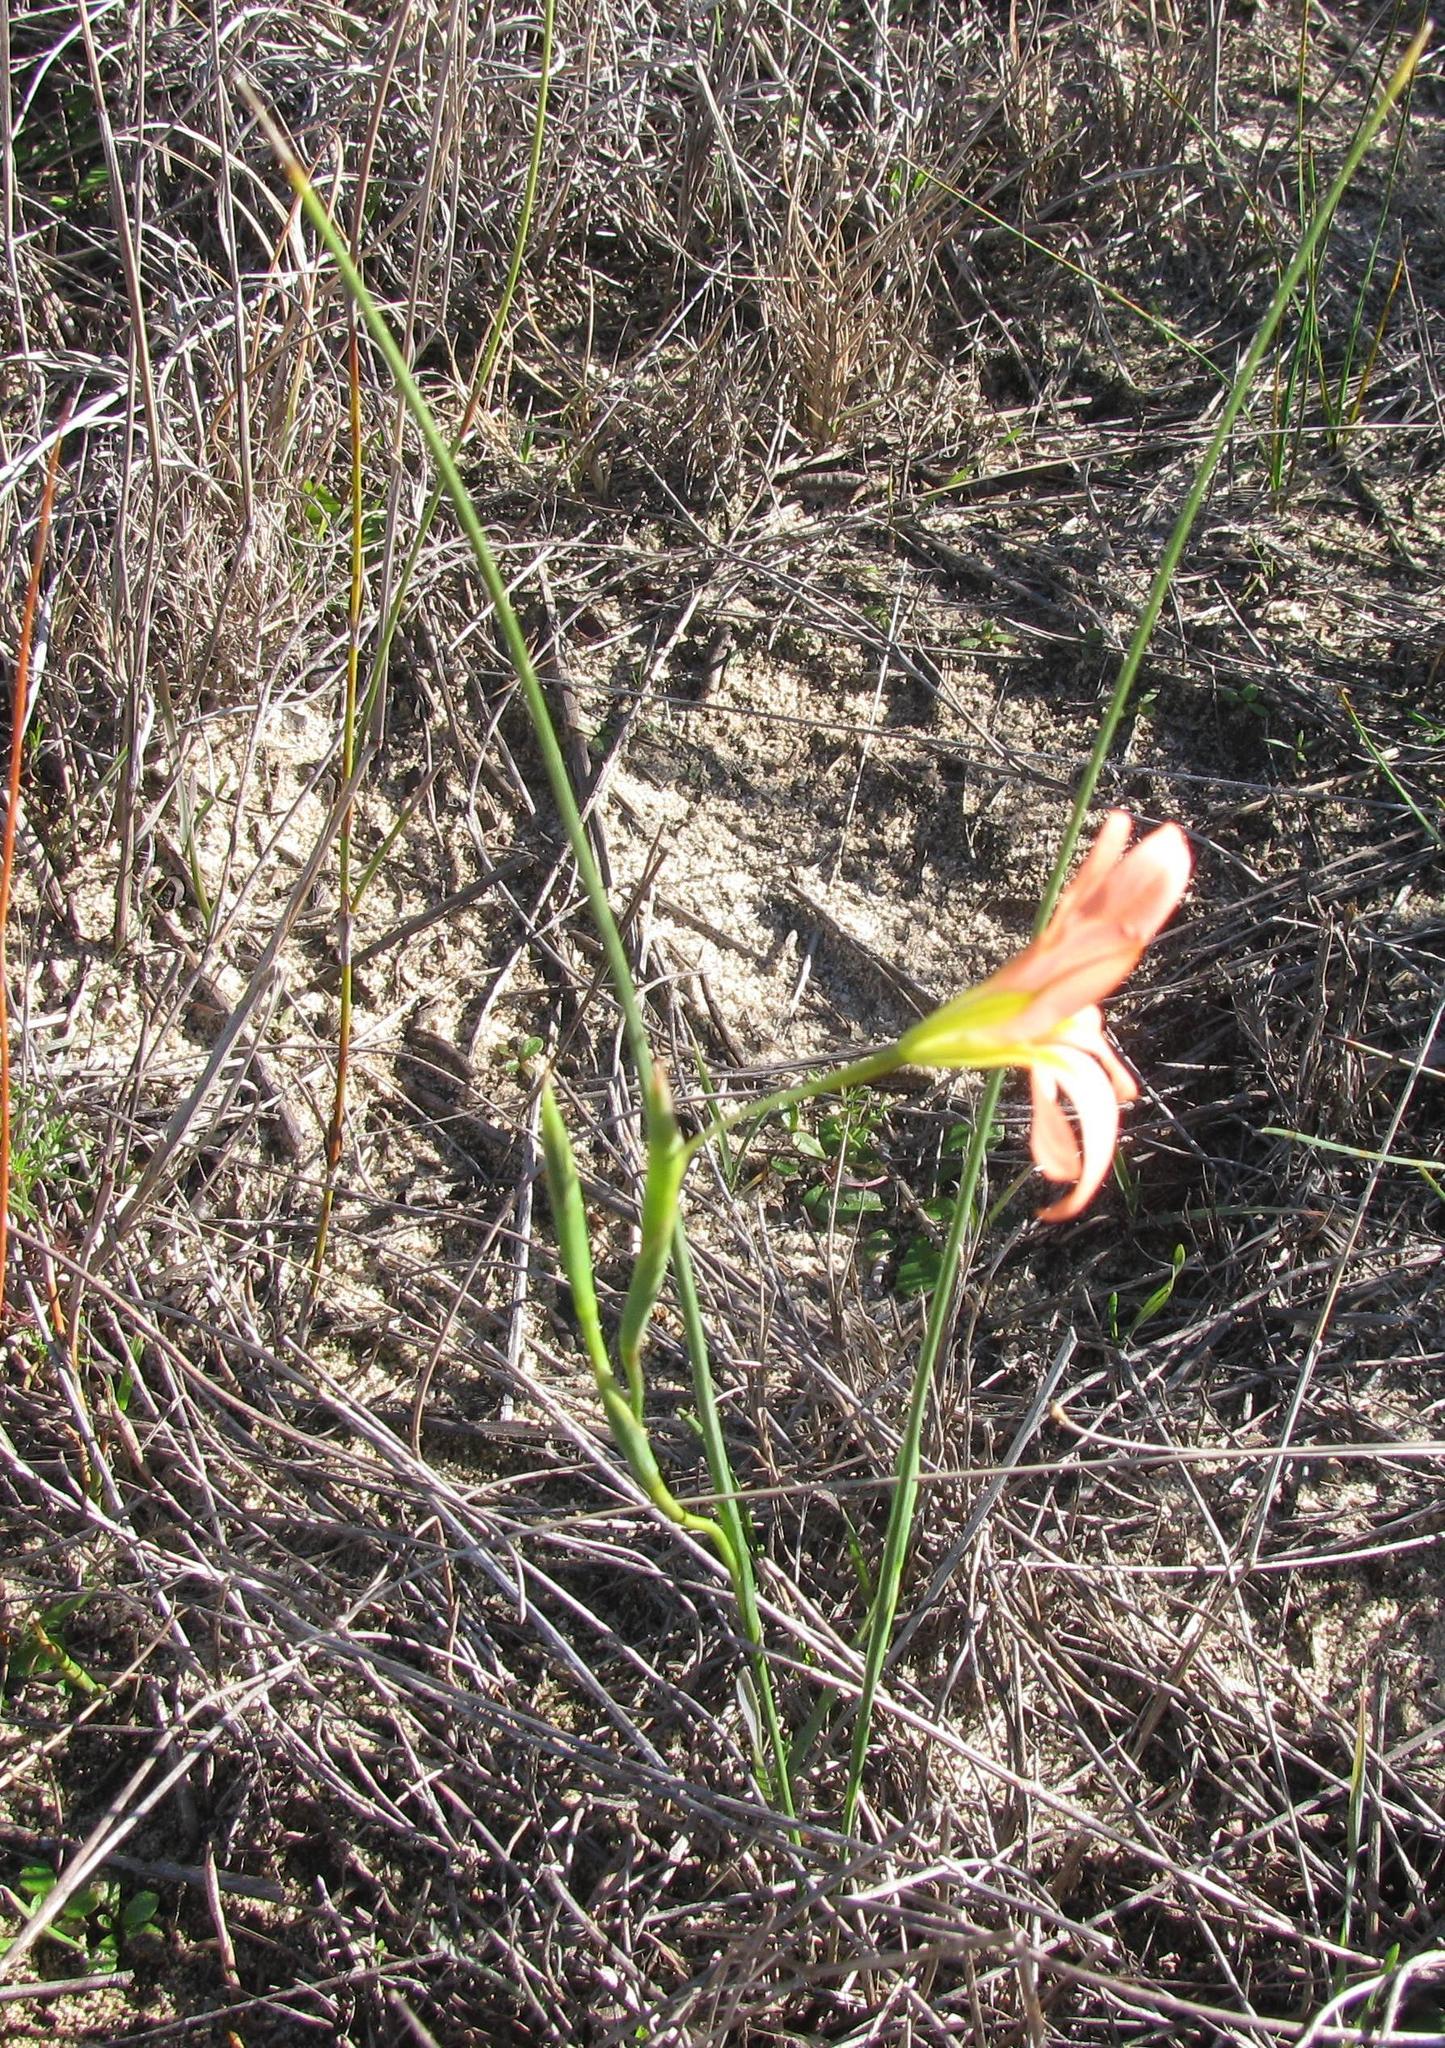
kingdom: Plantae
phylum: Tracheophyta
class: Liliopsida
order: Asparagales
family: Iridaceae
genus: Moraea
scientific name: Moraea flaccida
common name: One-leaf cape-tulip
